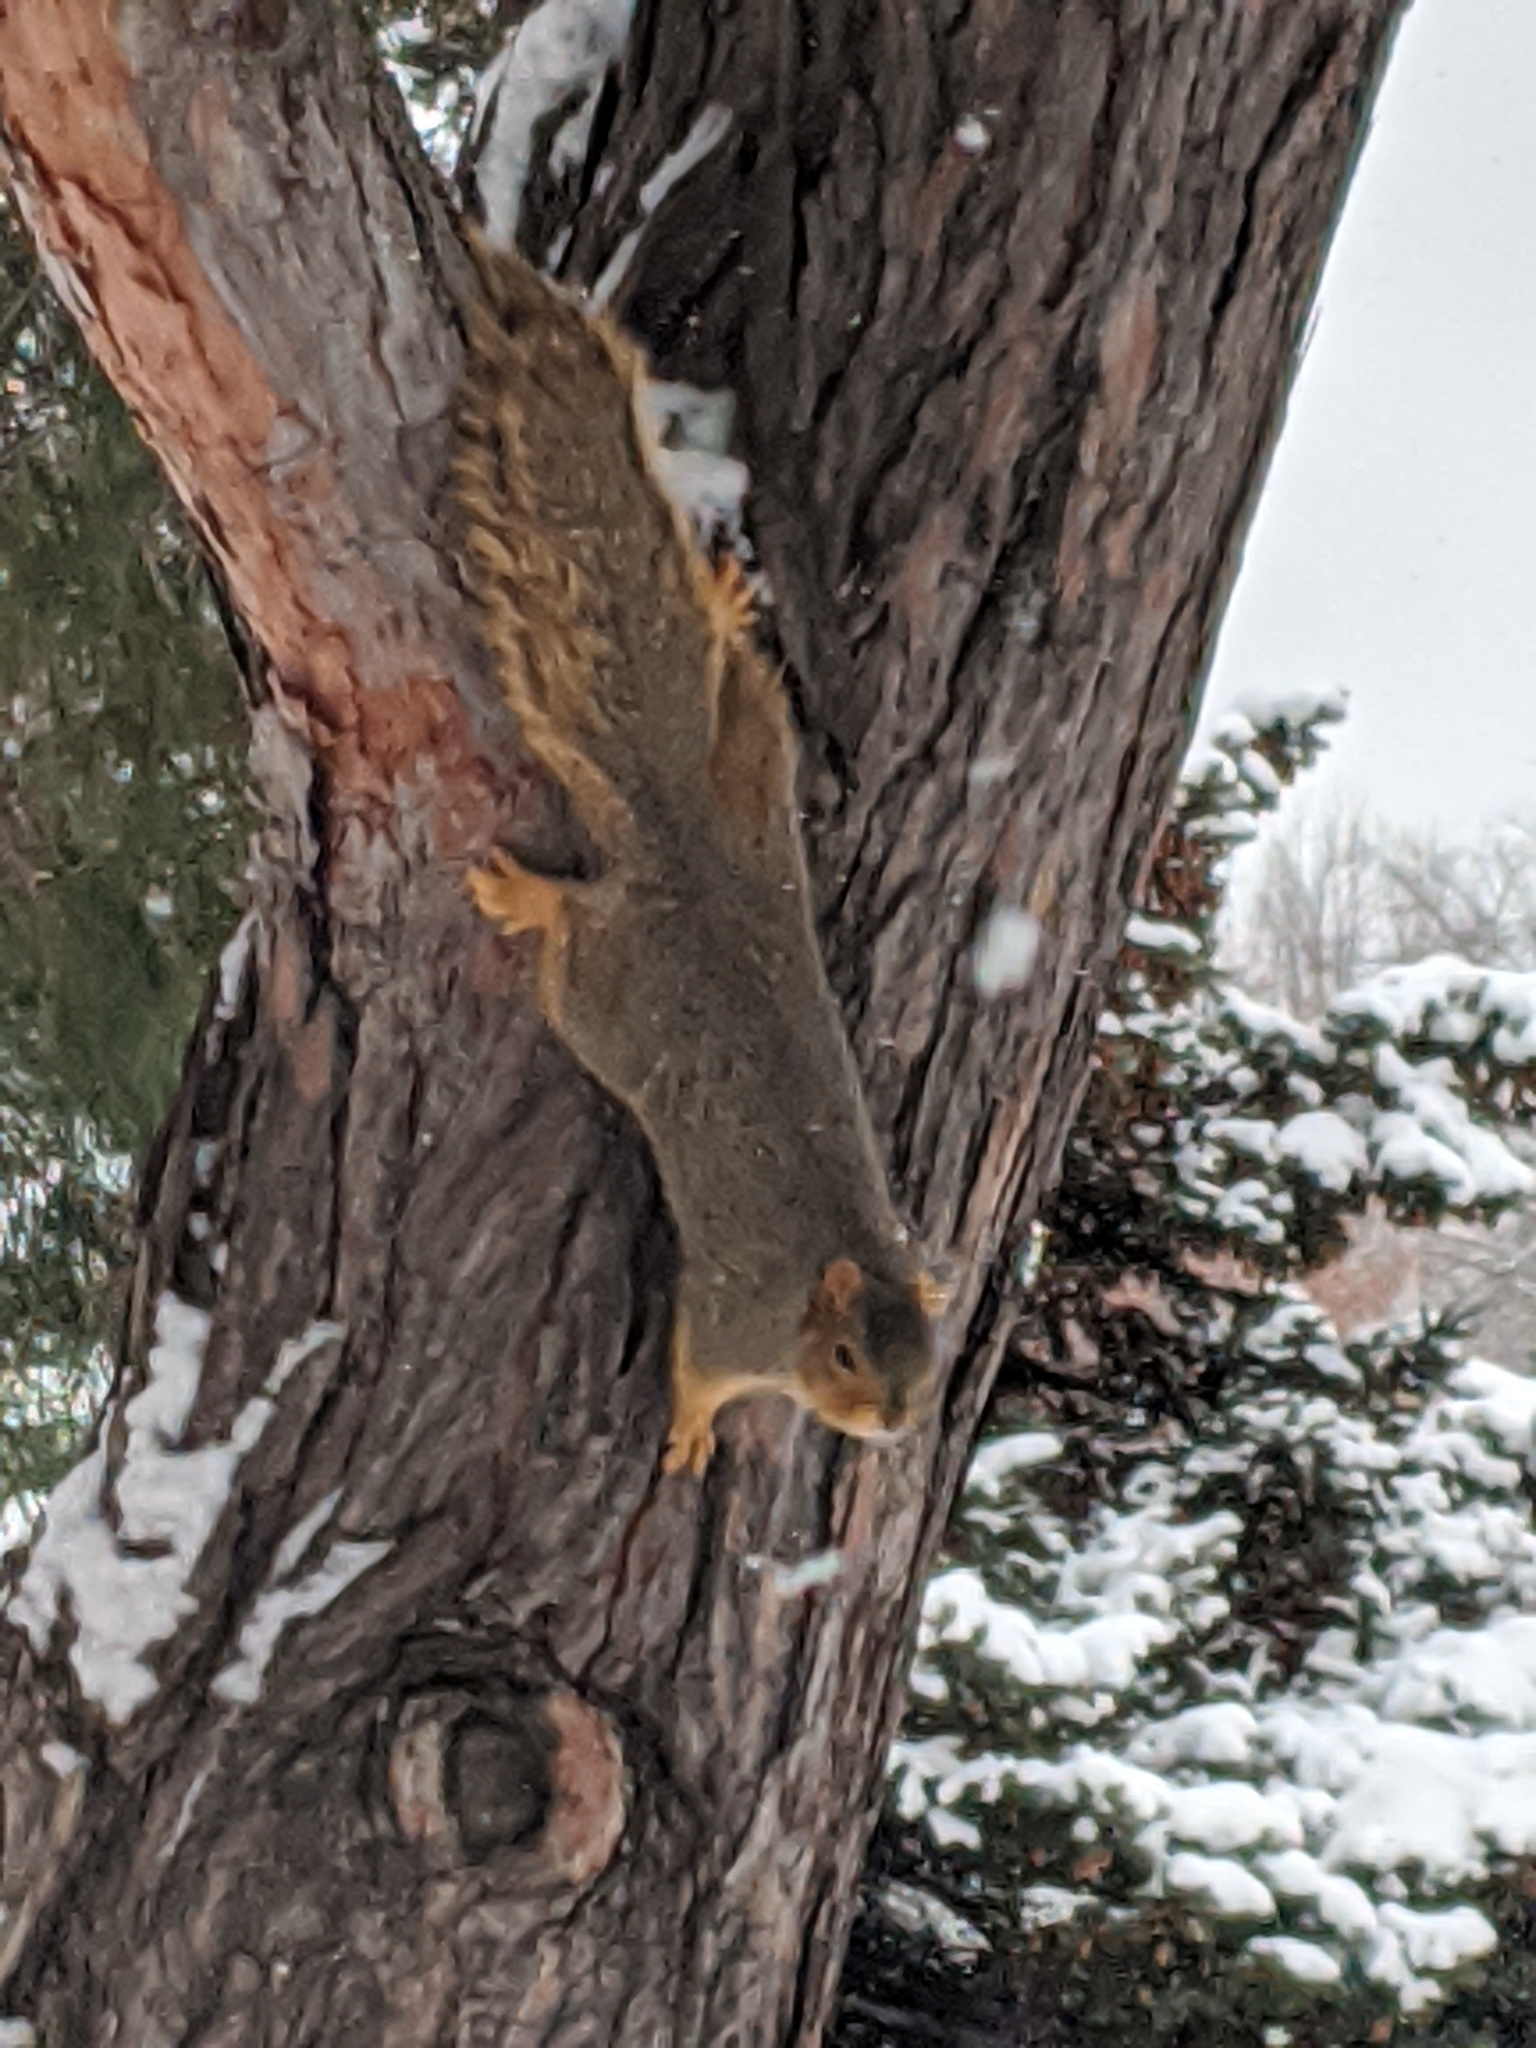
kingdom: Animalia
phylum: Chordata
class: Mammalia
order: Rodentia
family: Sciuridae
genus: Sciurus
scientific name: Sciurus niger
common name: Fox squirrel
